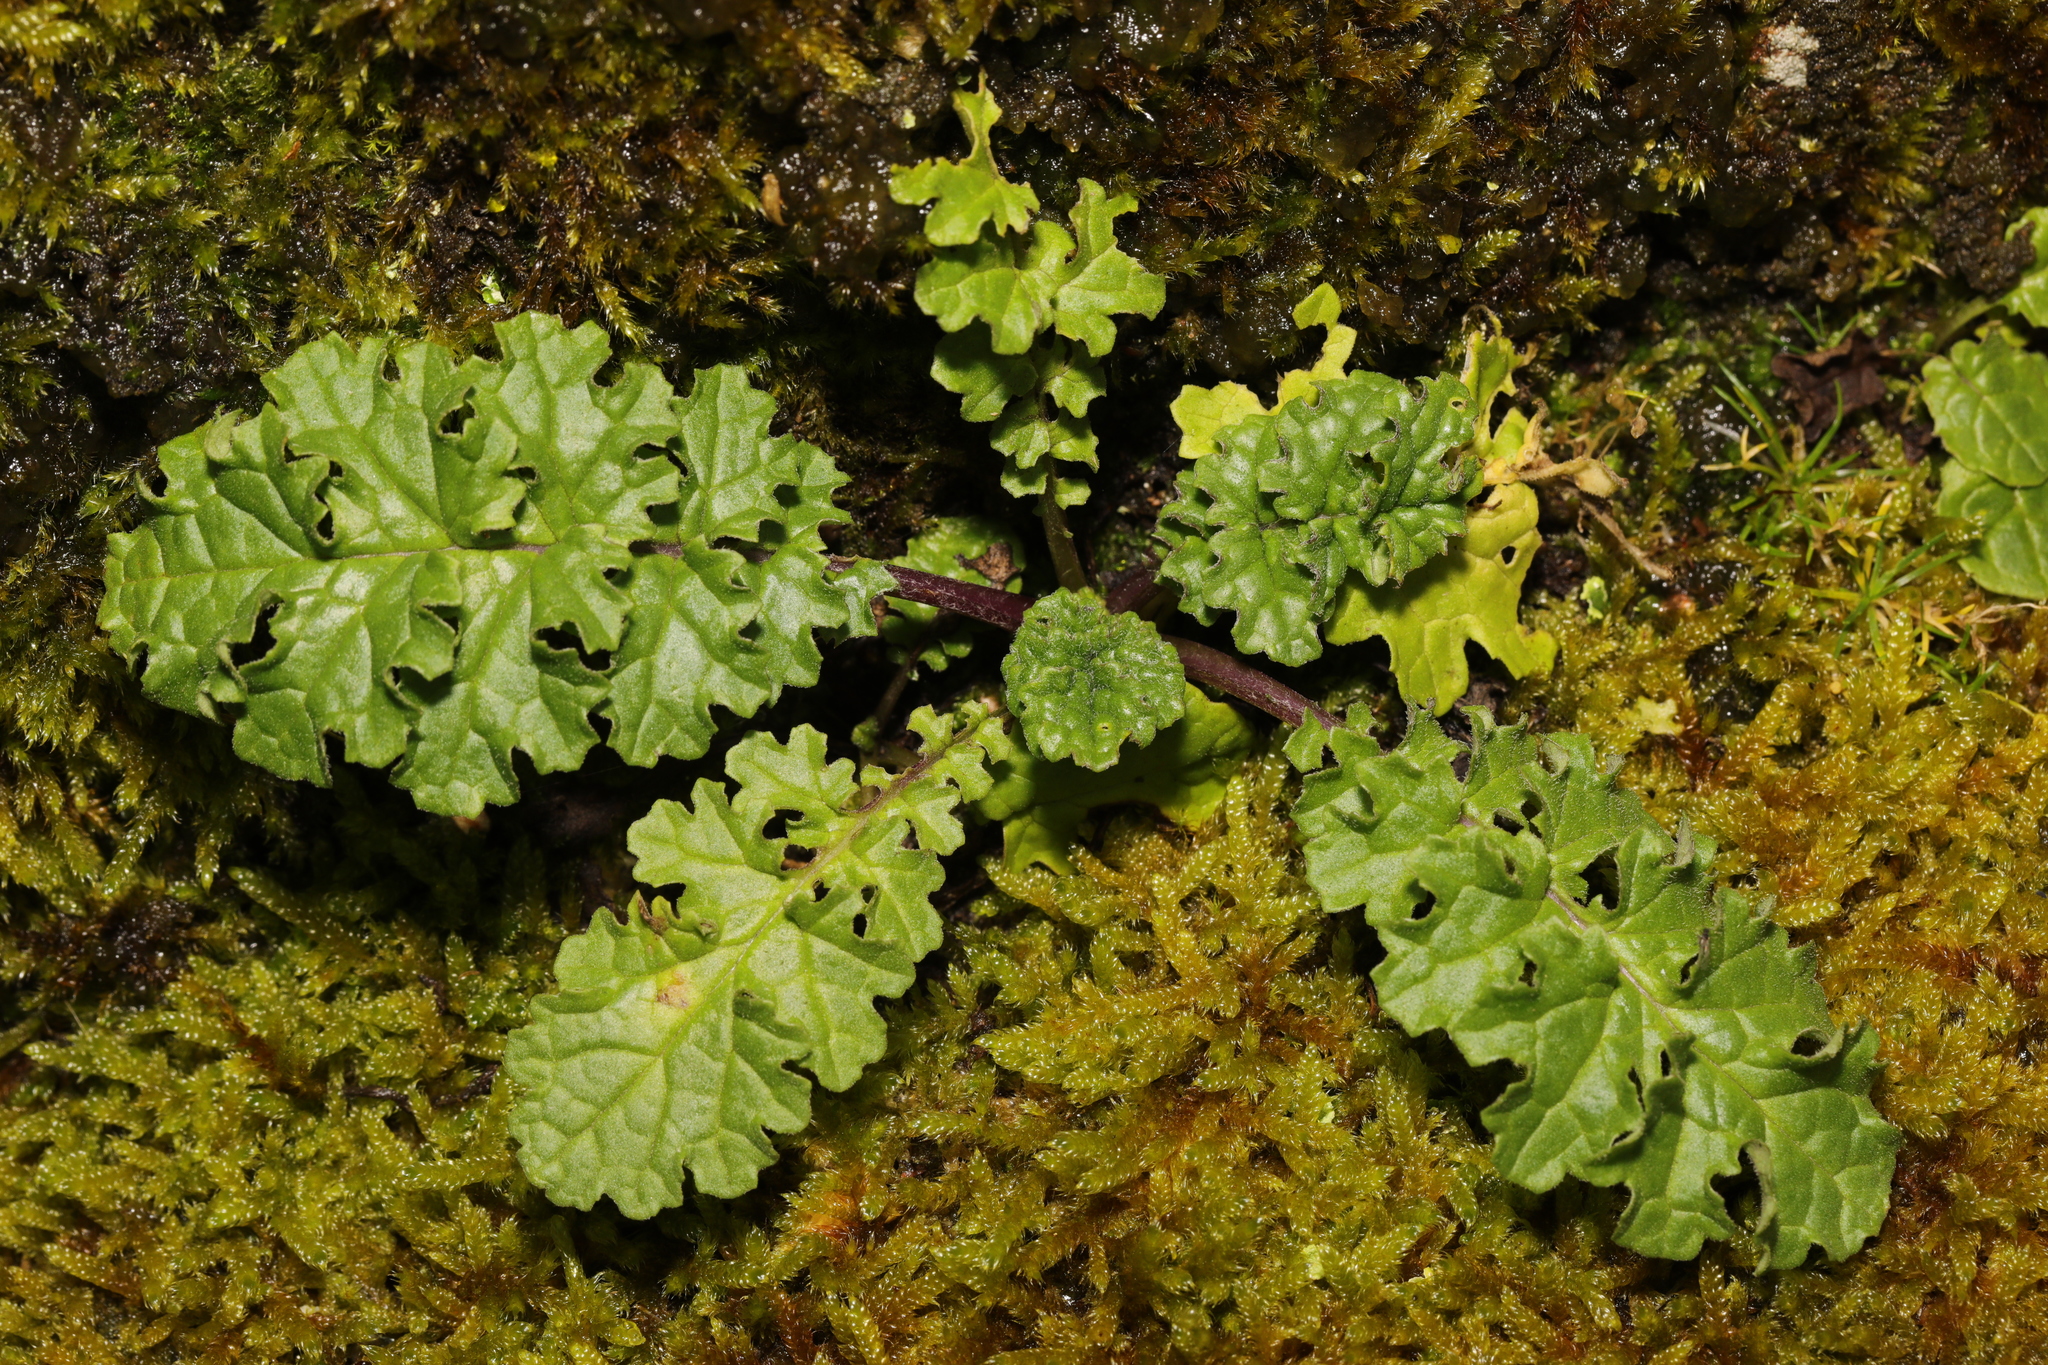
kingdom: Plantae
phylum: Tracheophyta
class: Magnoliopsida
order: Asterales
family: Asteraceae
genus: Jacobaea
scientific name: Jacobaea vulgaris
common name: Stinking willie
